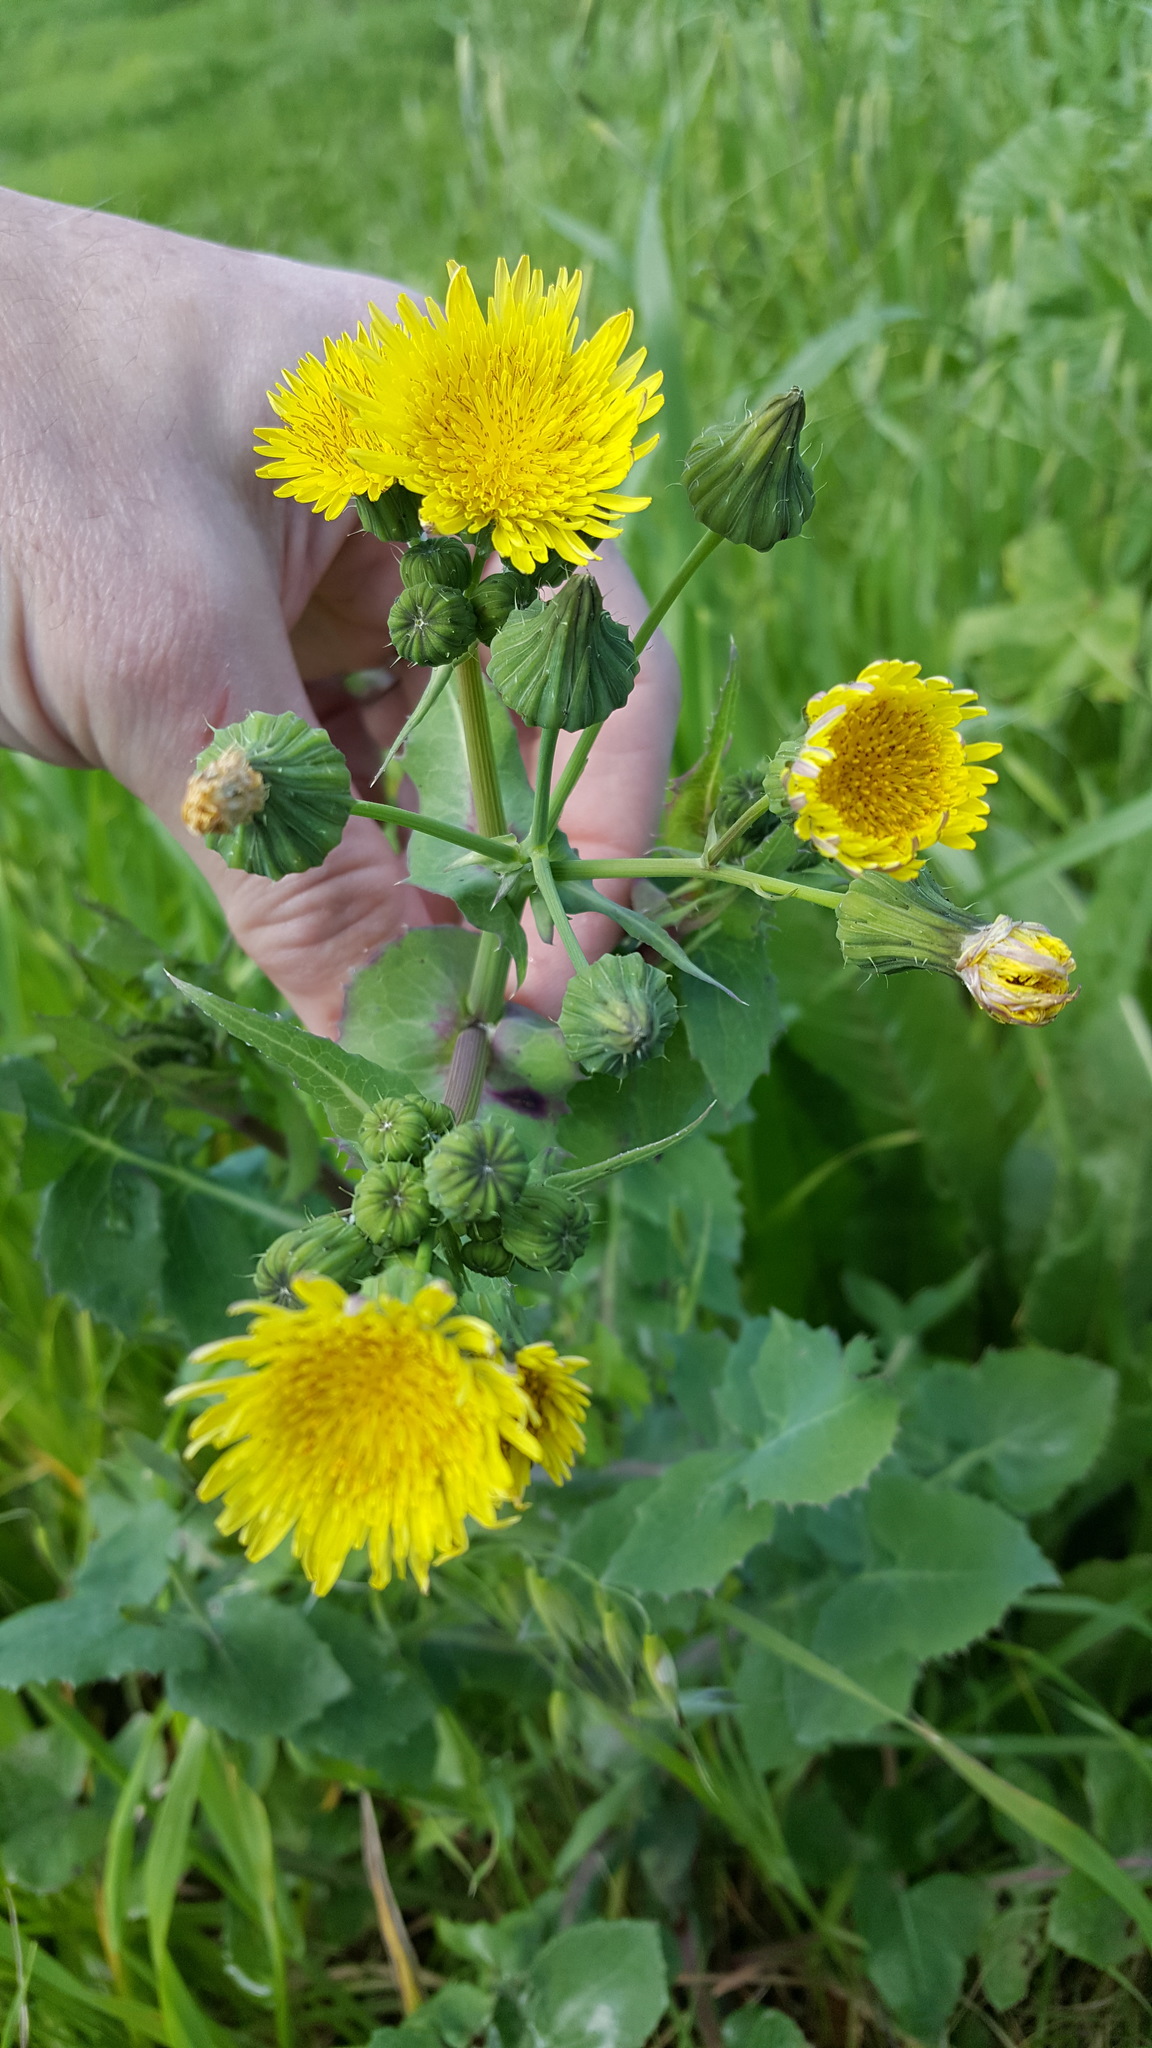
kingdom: Plantae
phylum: Tracheophyta
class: Magnoliopsida
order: Asterales
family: Asteraceae
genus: Sonchus
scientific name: Sonchus oleraceus
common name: Common sowthistle
